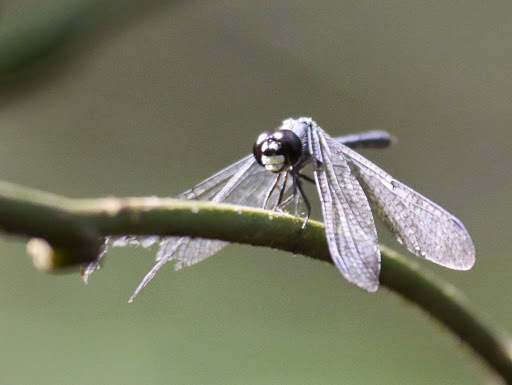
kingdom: Animalia
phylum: Arthropoda
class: Insecta
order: Odonata
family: Libellulidae
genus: Thermochoria
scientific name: Thermochoria equivocata
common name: Dash-winged piedface
